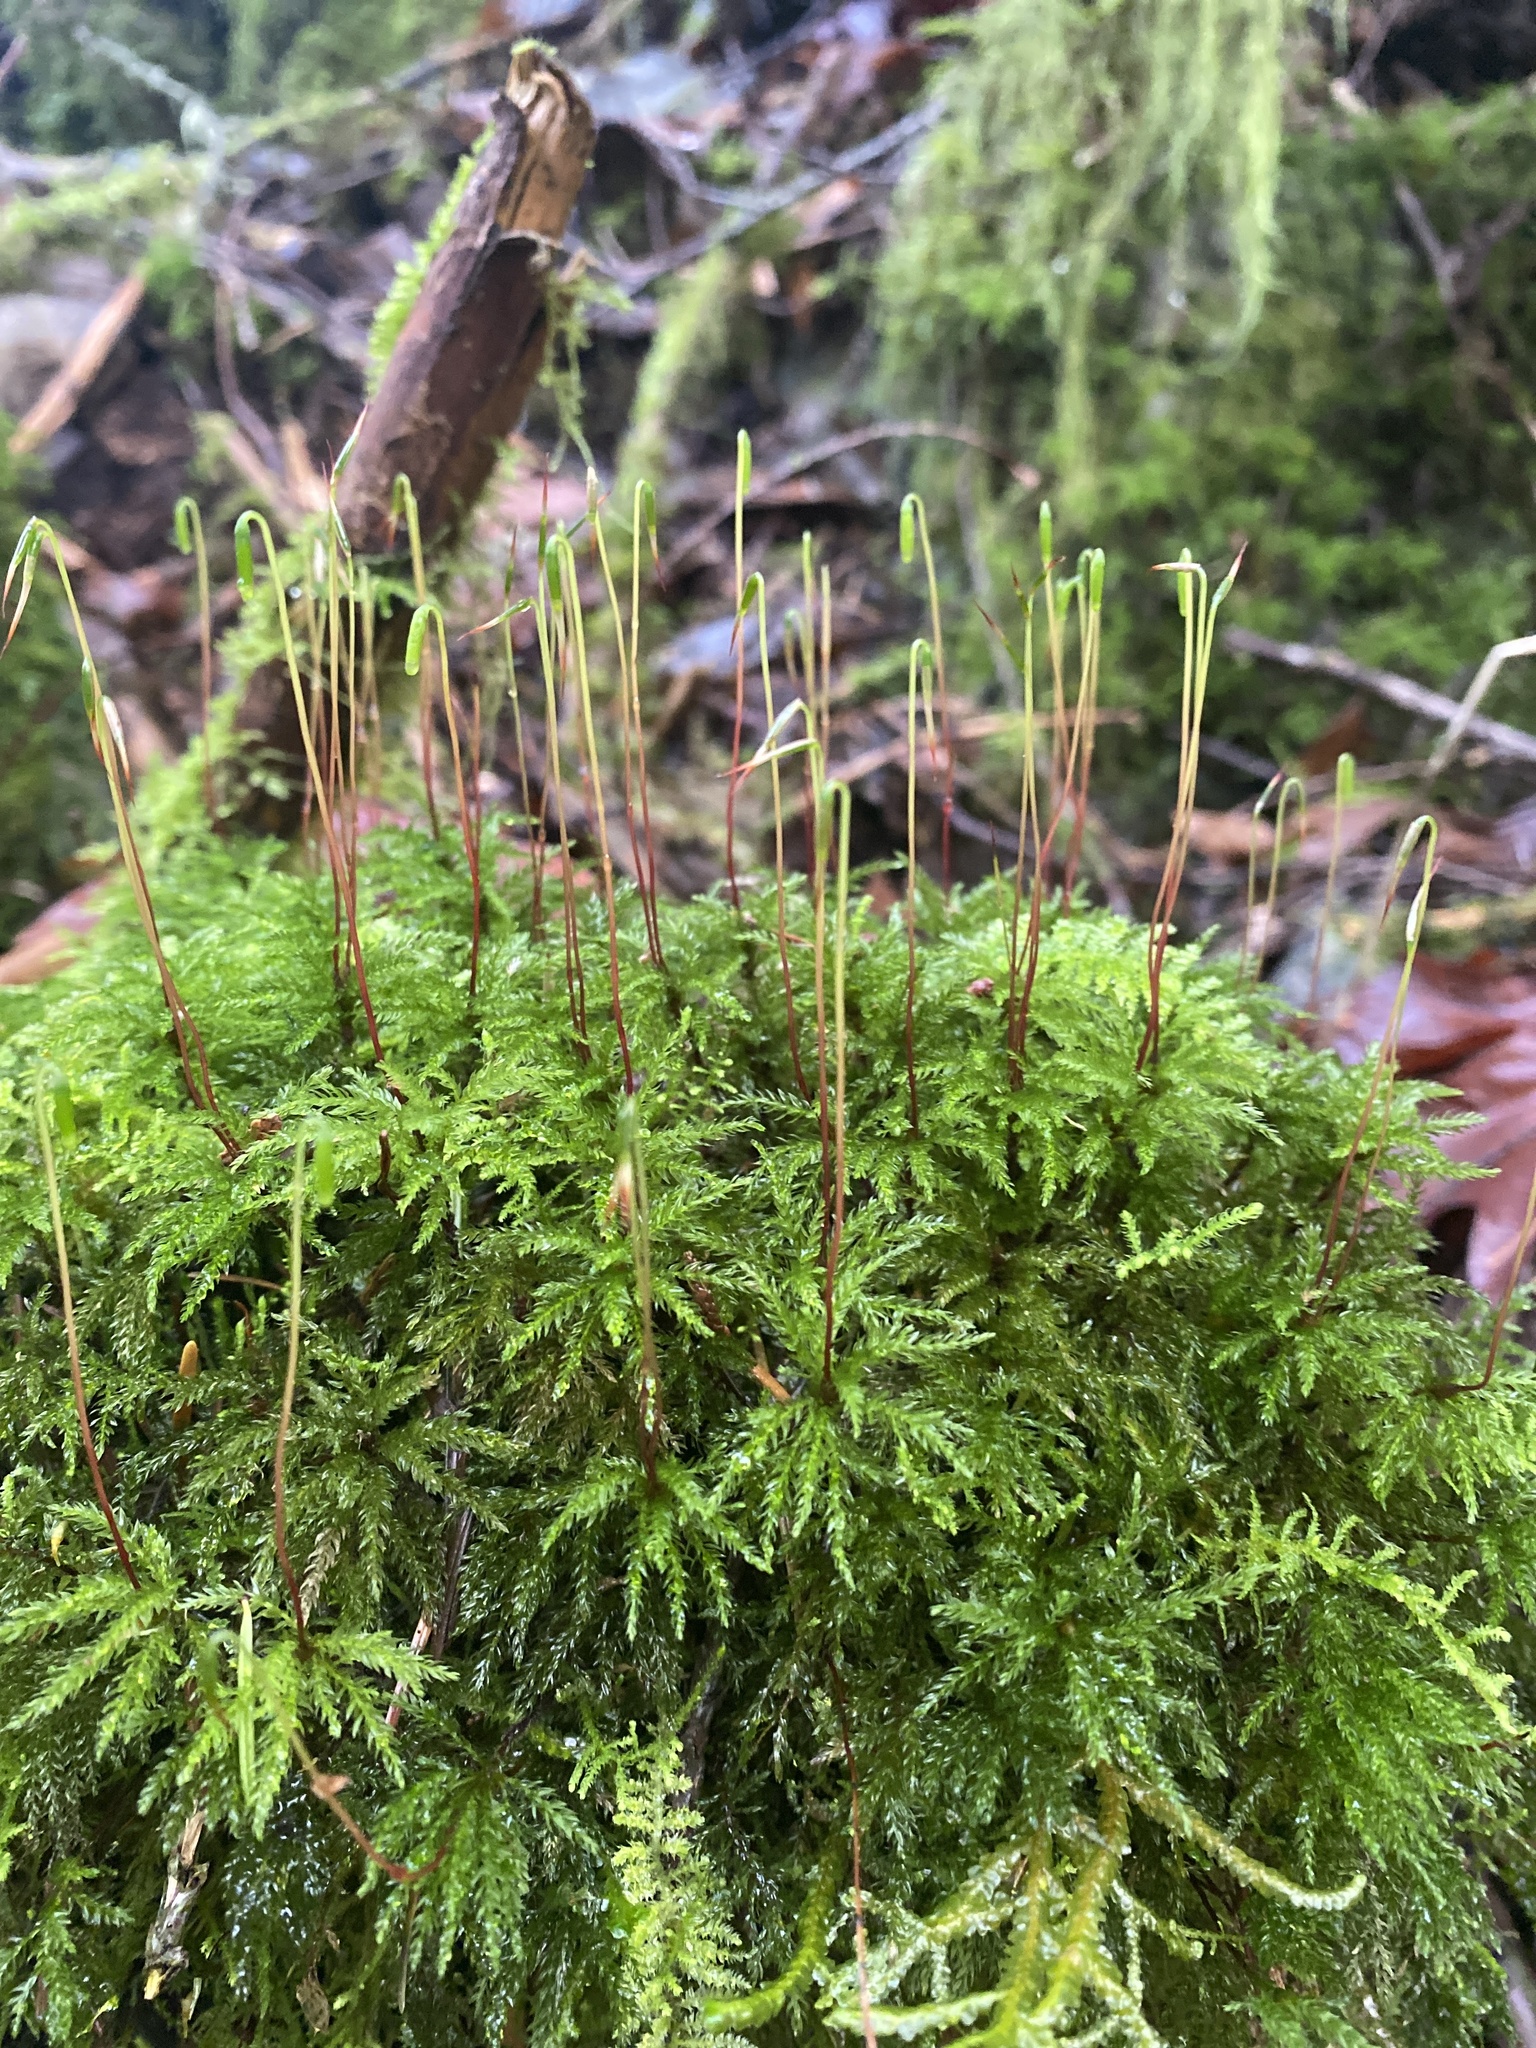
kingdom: Plantae
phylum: Bryophyta
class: Bryopsida
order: Bryales
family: Mniaceae
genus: Leucolepis
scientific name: Leucolepis acanthoneura
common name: Leucolepis umbrella moss
